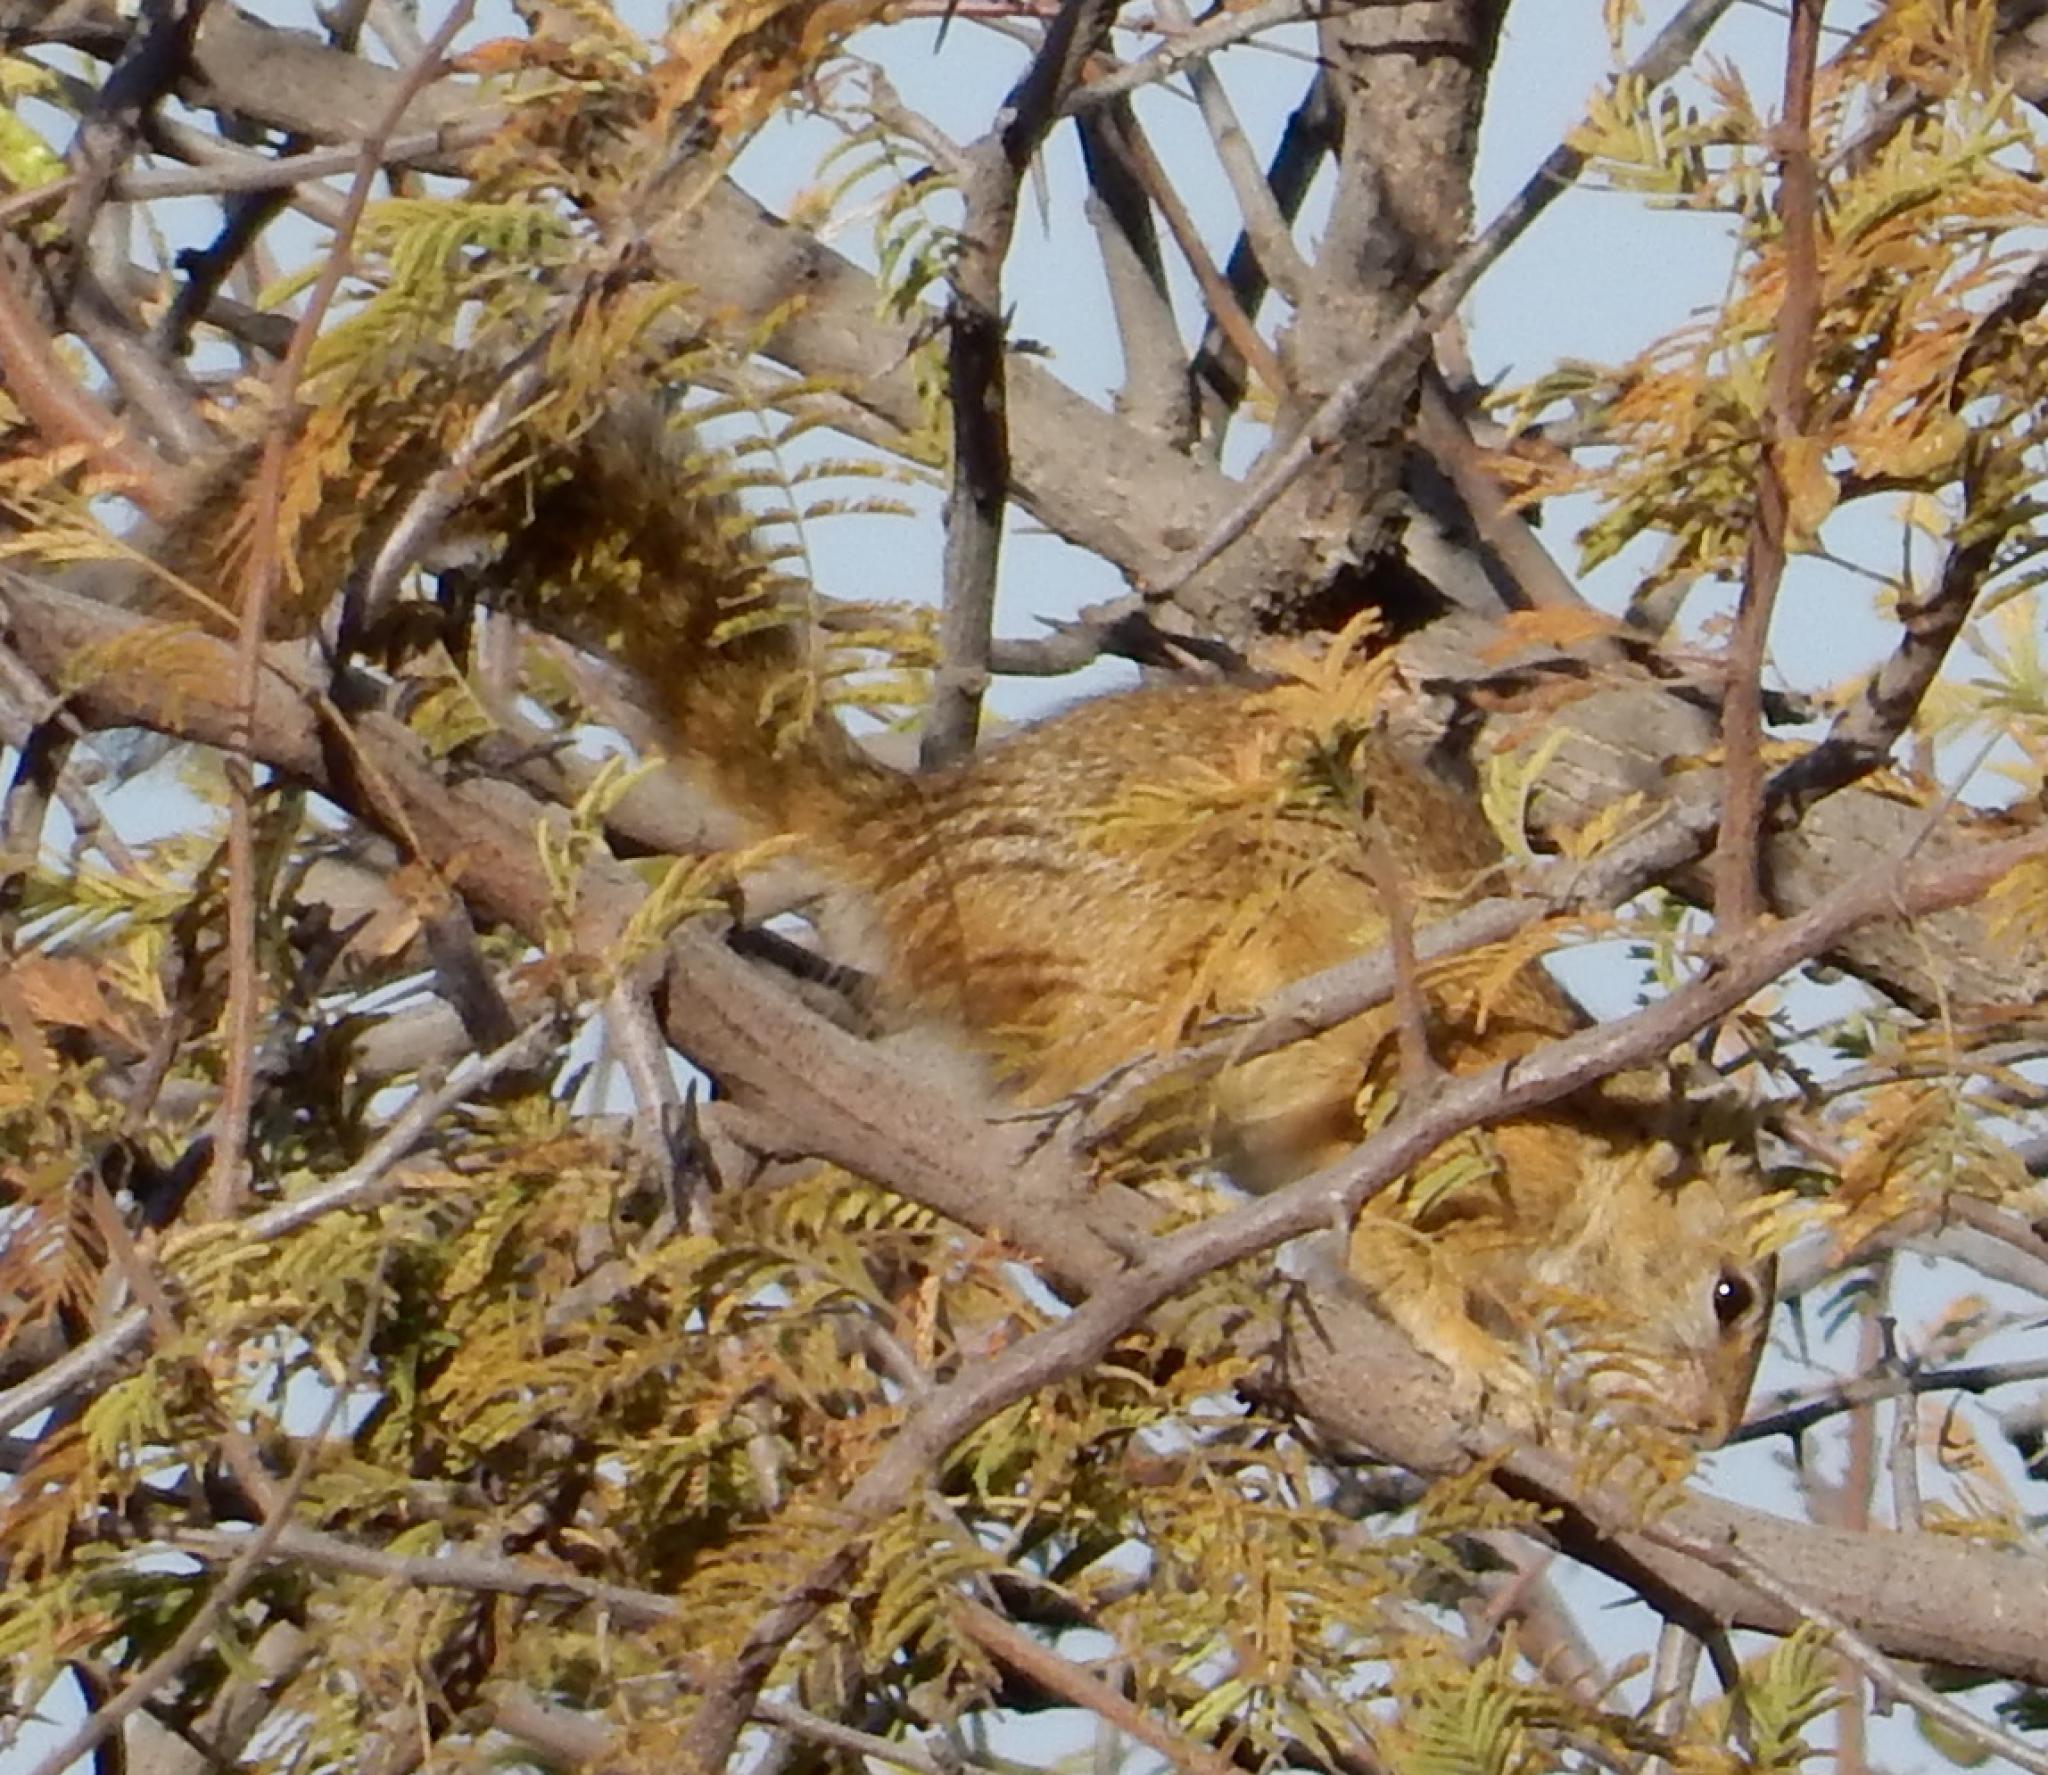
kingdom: Animalia
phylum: Chordata
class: Mammalia
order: Rodentia
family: Sciuridae
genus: Paraxerus
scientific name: Paraxerus cepapi
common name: Smith's bush squirrel
